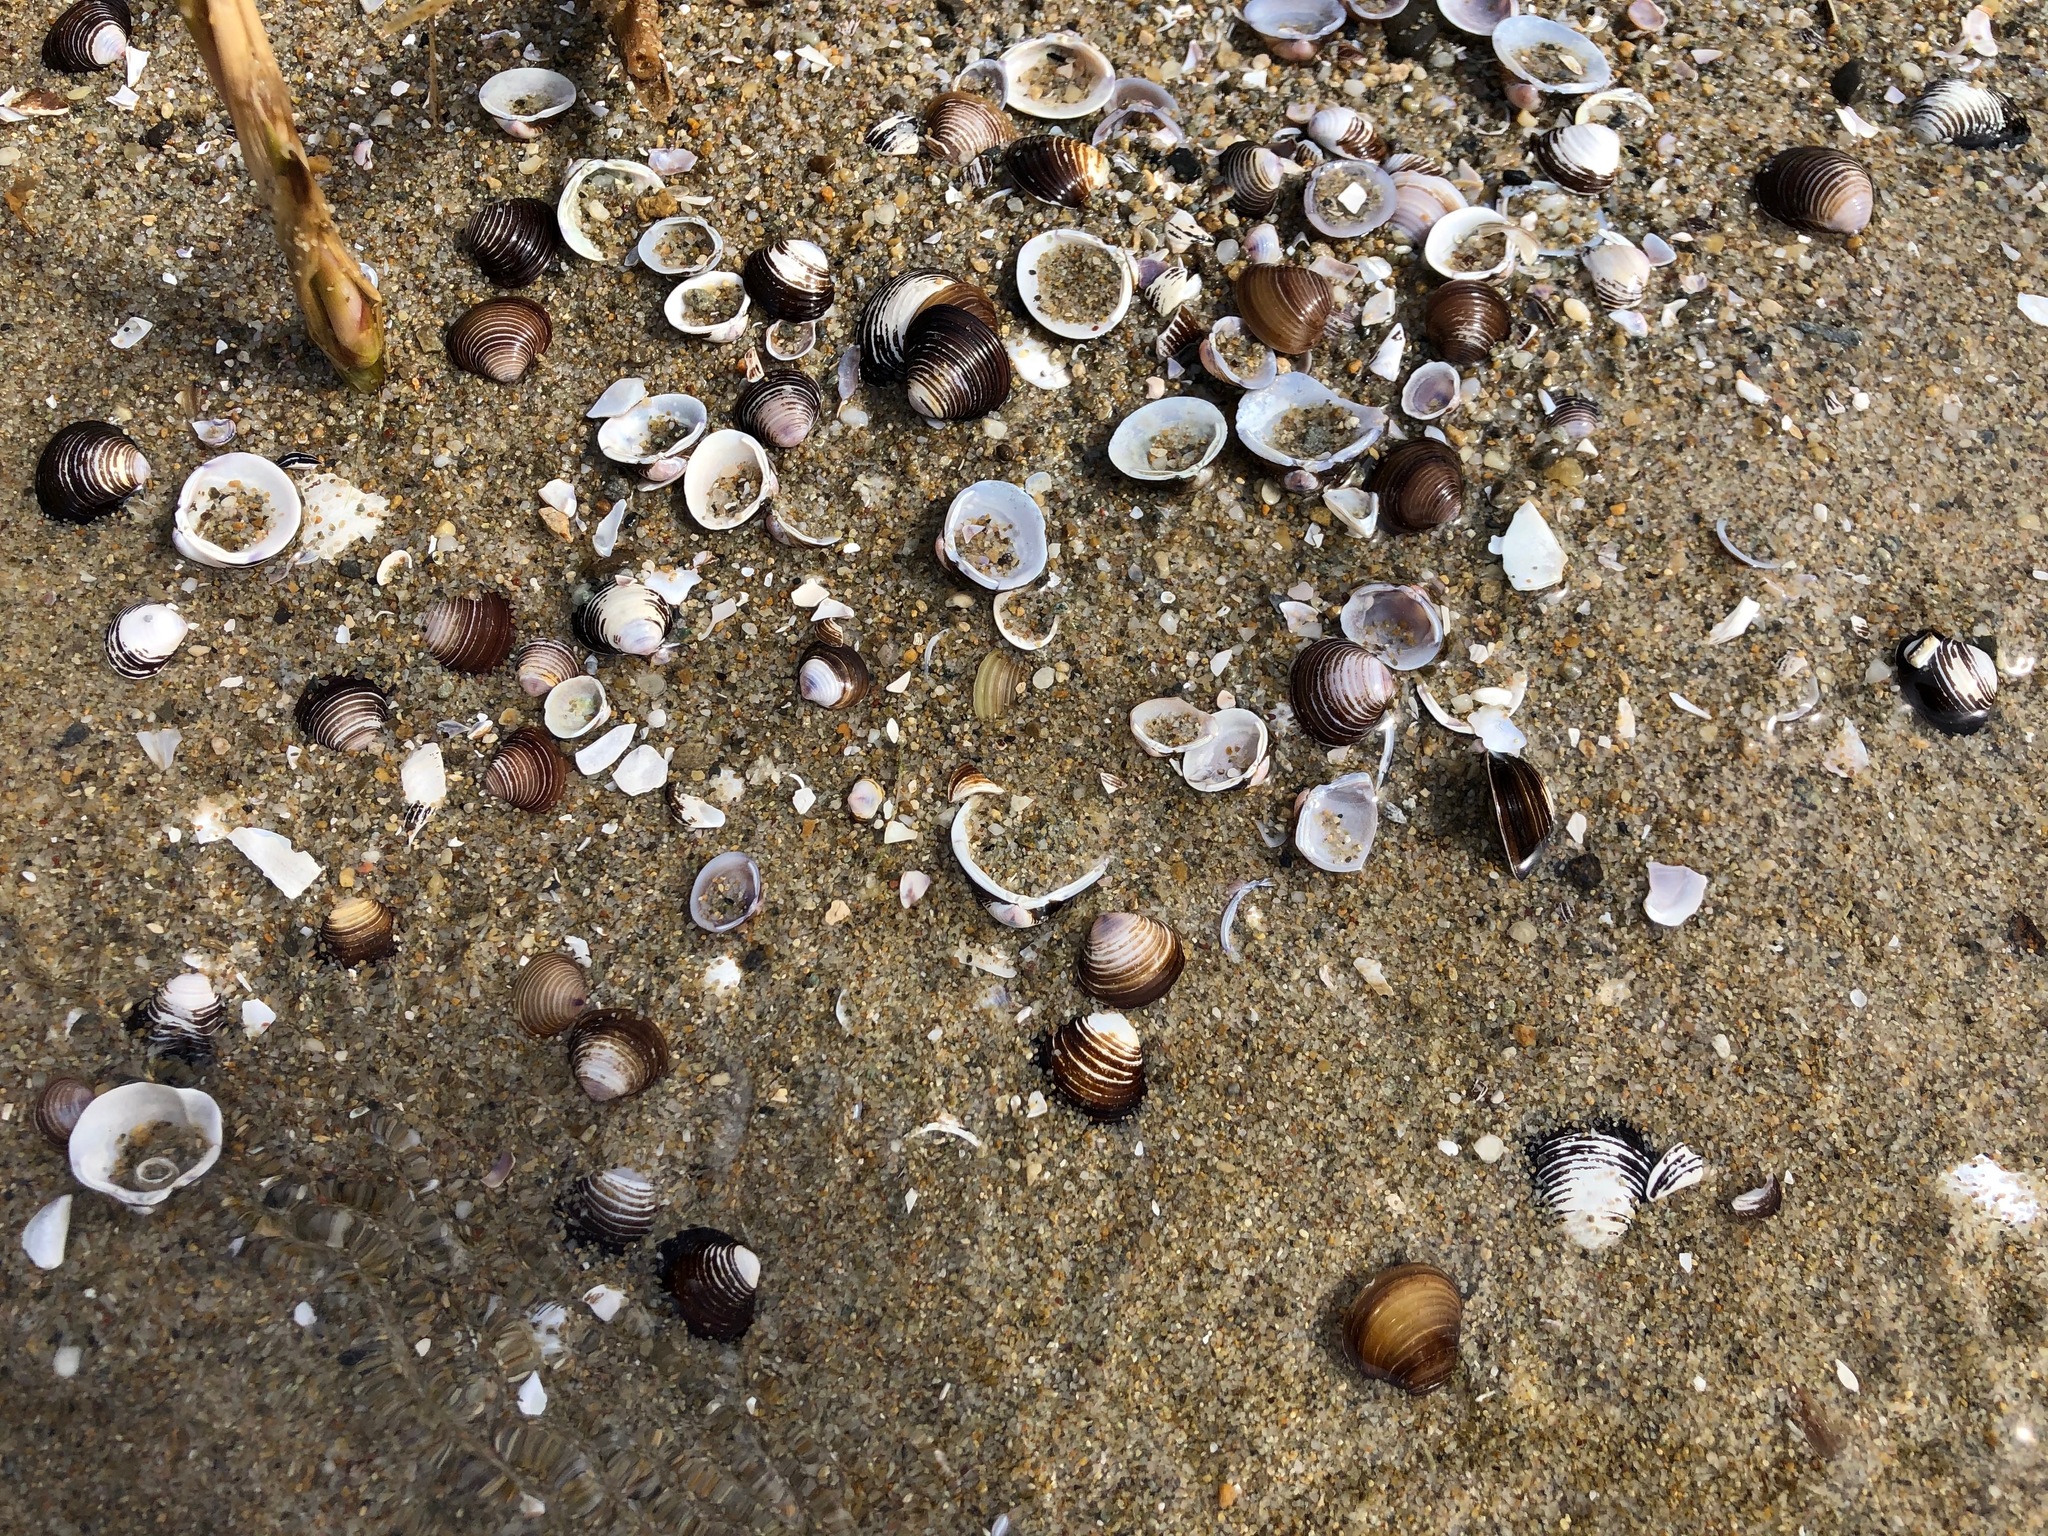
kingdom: Animalia
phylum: Mollusca
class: Bivalvia
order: Venerida
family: Cyrenidae
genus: Corbicula
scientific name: Corbicula fluminea
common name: Asian clam
